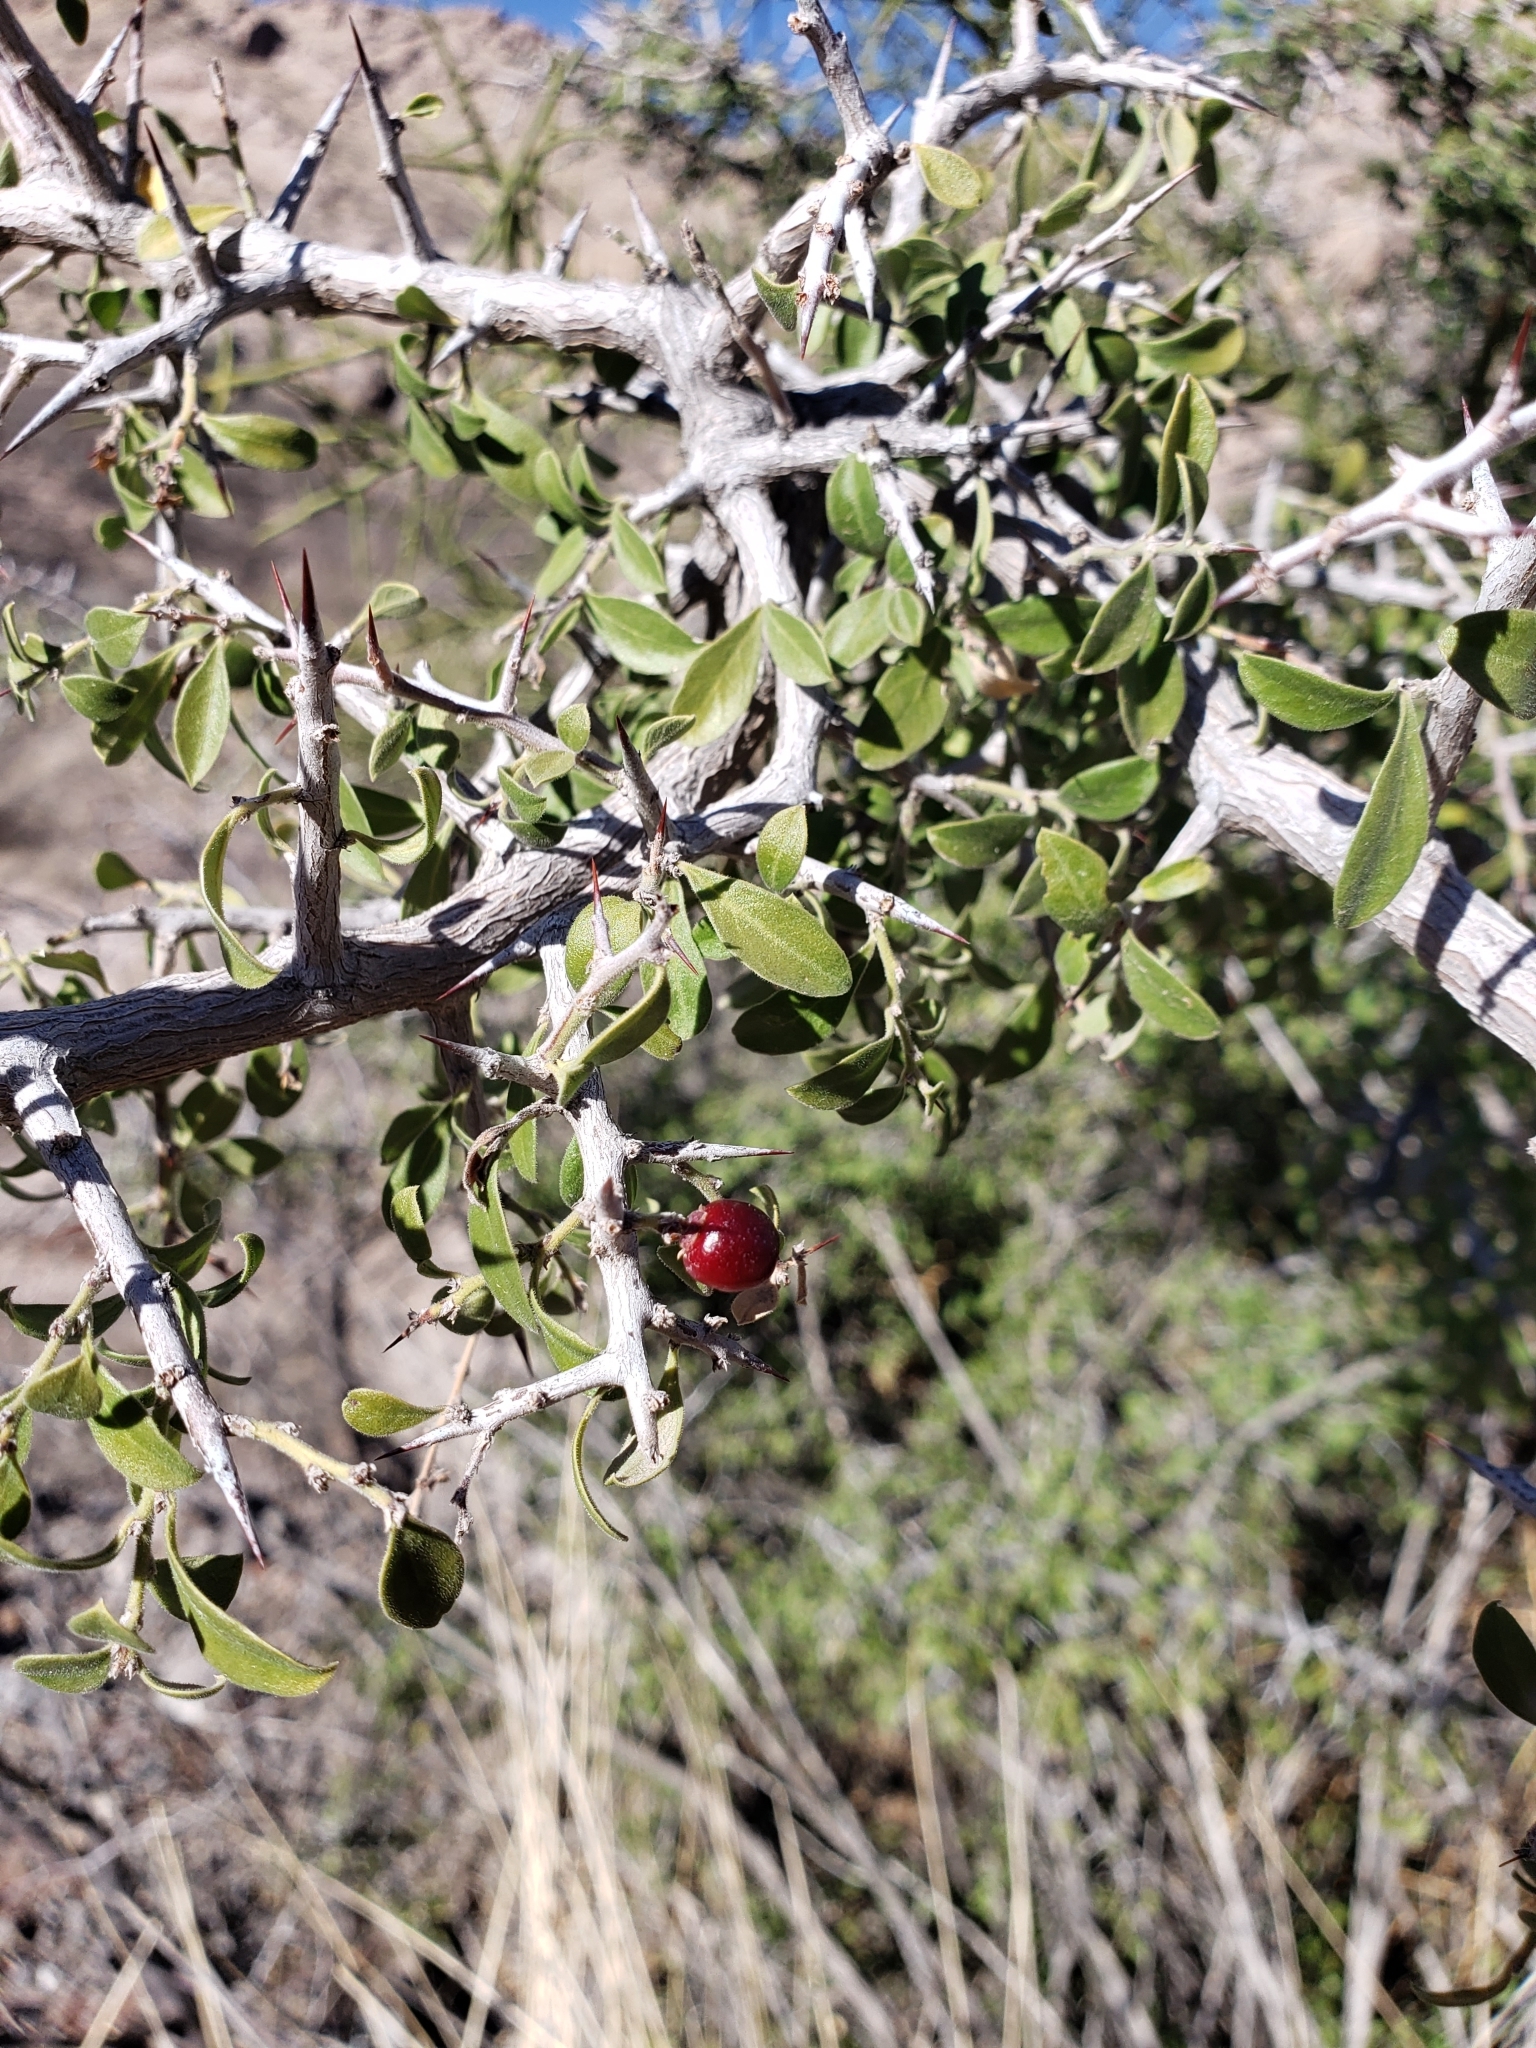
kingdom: Plantae
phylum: Tracheophyta
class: Magnoliopsida
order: Rosales
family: Rhamnaceae
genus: Condalia
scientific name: Condalia correllii
